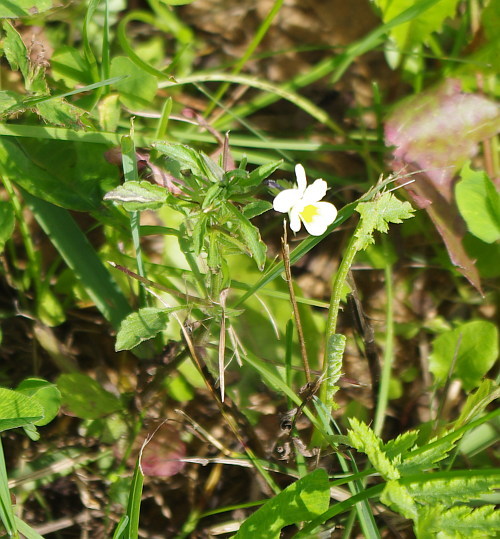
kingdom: Plantae
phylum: Tracheophyta
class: Magnoliopsida
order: Malpighiales
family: Violaceae
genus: Viola
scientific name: Viola arvensis
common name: Field pansy
